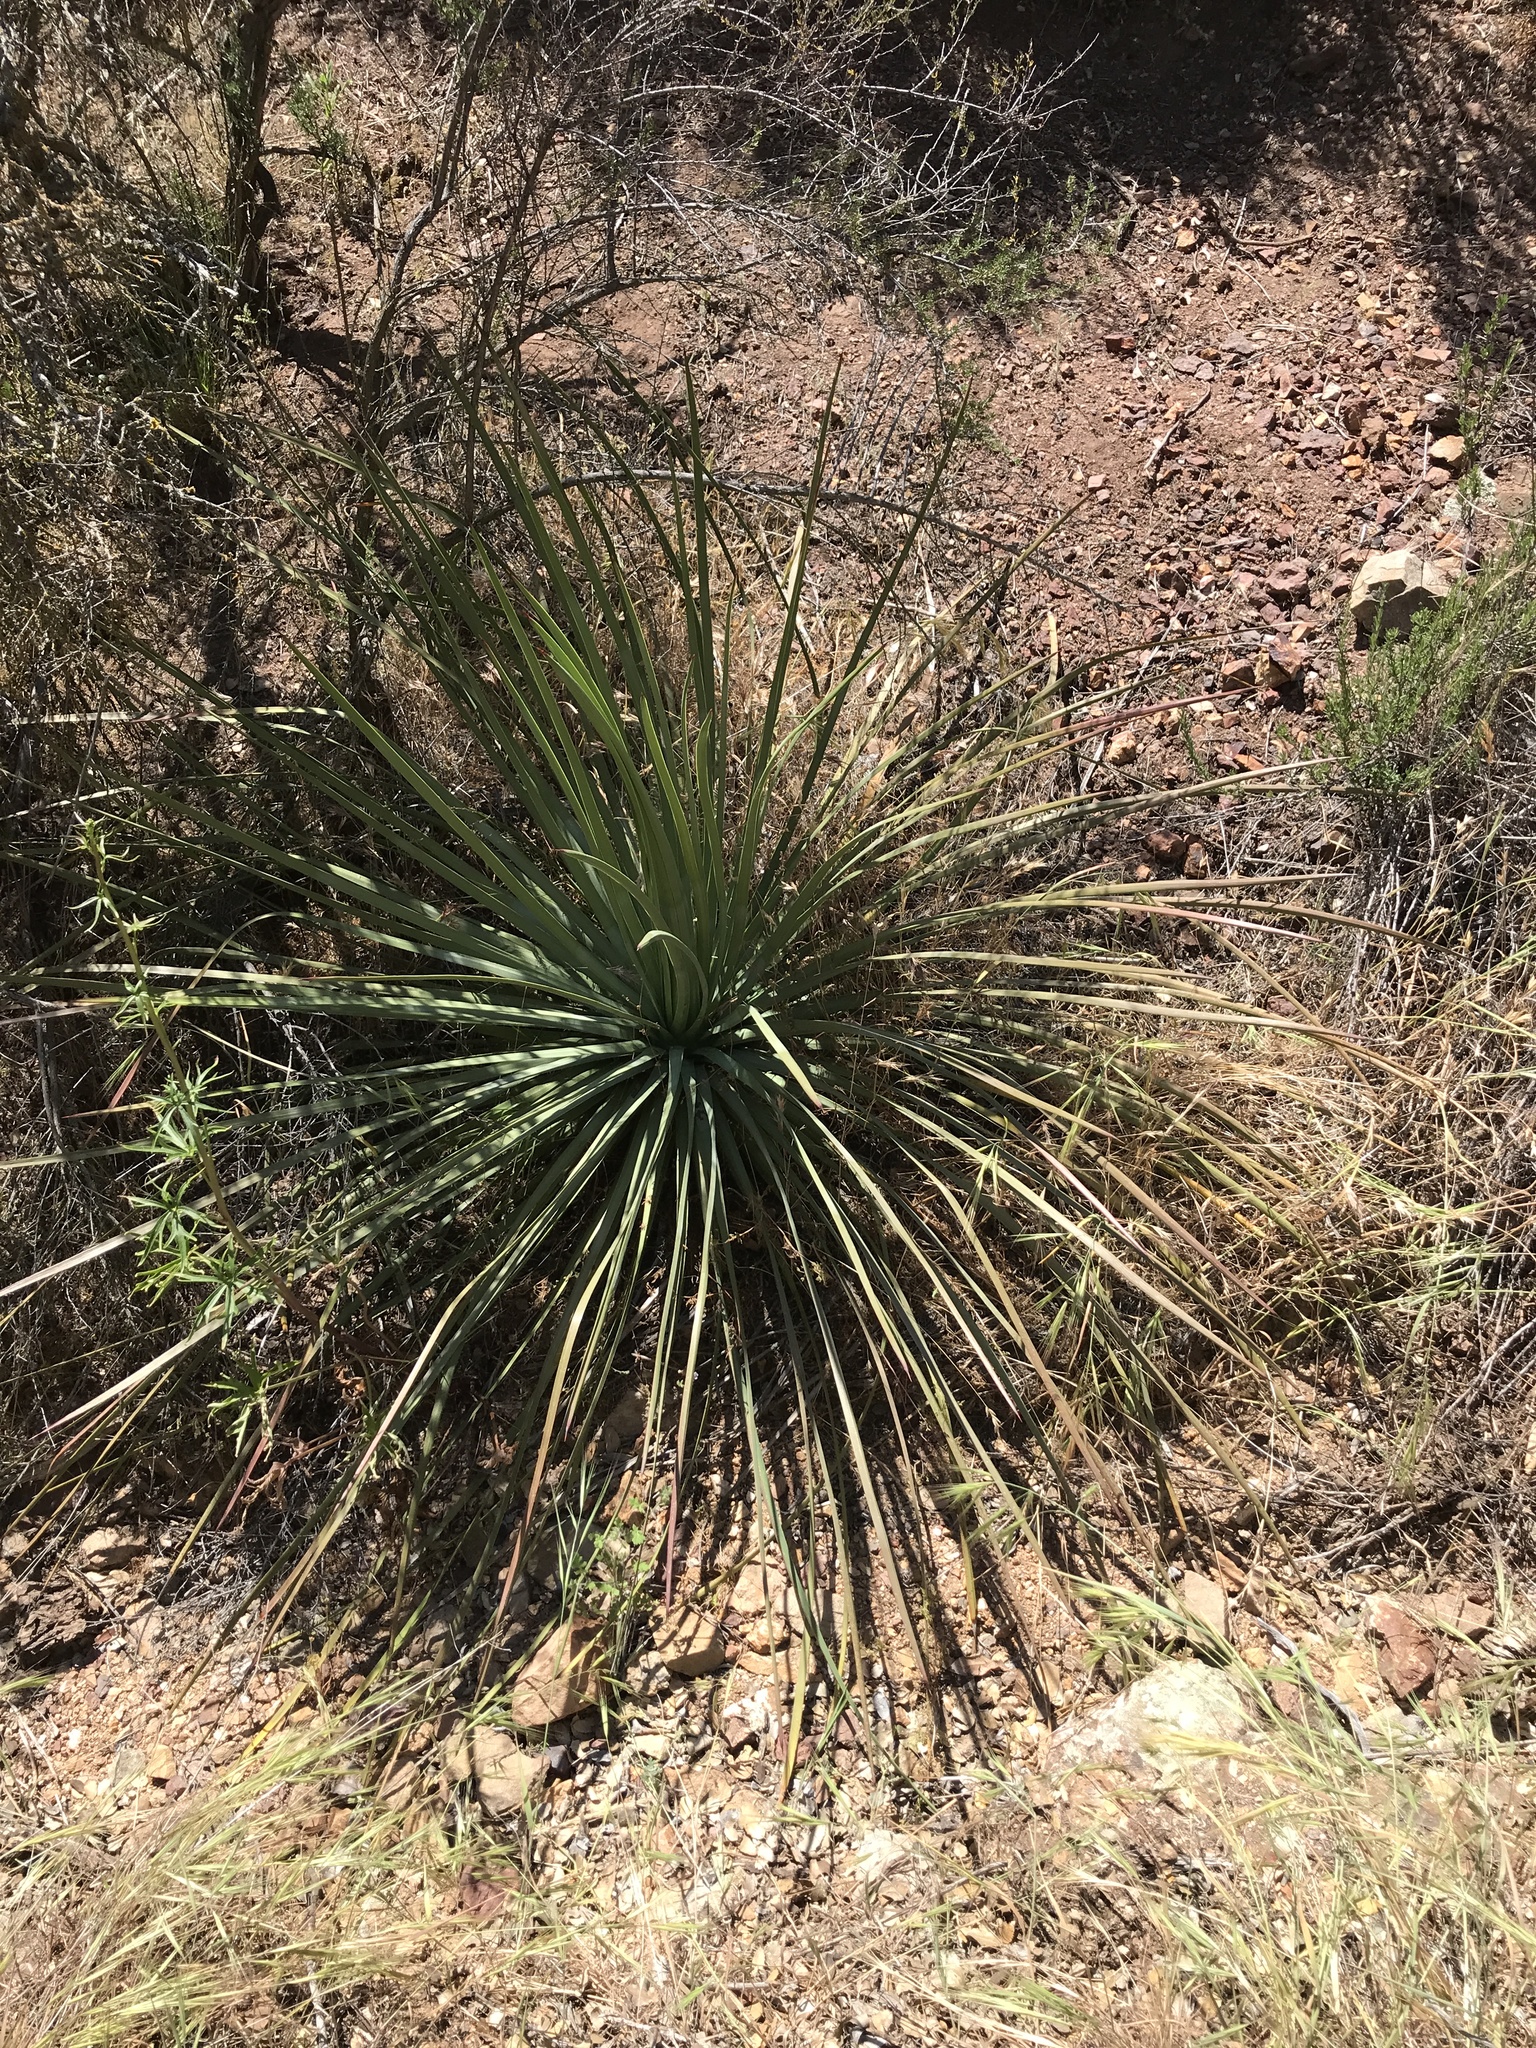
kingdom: Plantae
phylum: Tracheophyta
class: Liliopsida
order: Asparagales
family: Asparagaceae
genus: Hesperoyucca
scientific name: Hesperoyucca whipplei
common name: Our lord's-candle
